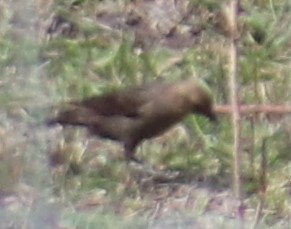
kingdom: Animalia
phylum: Chordata
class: Aves
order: Passeriformes
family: Icteridae
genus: Molothrus
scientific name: Molothrus ater
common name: Brown-headed cowbird
